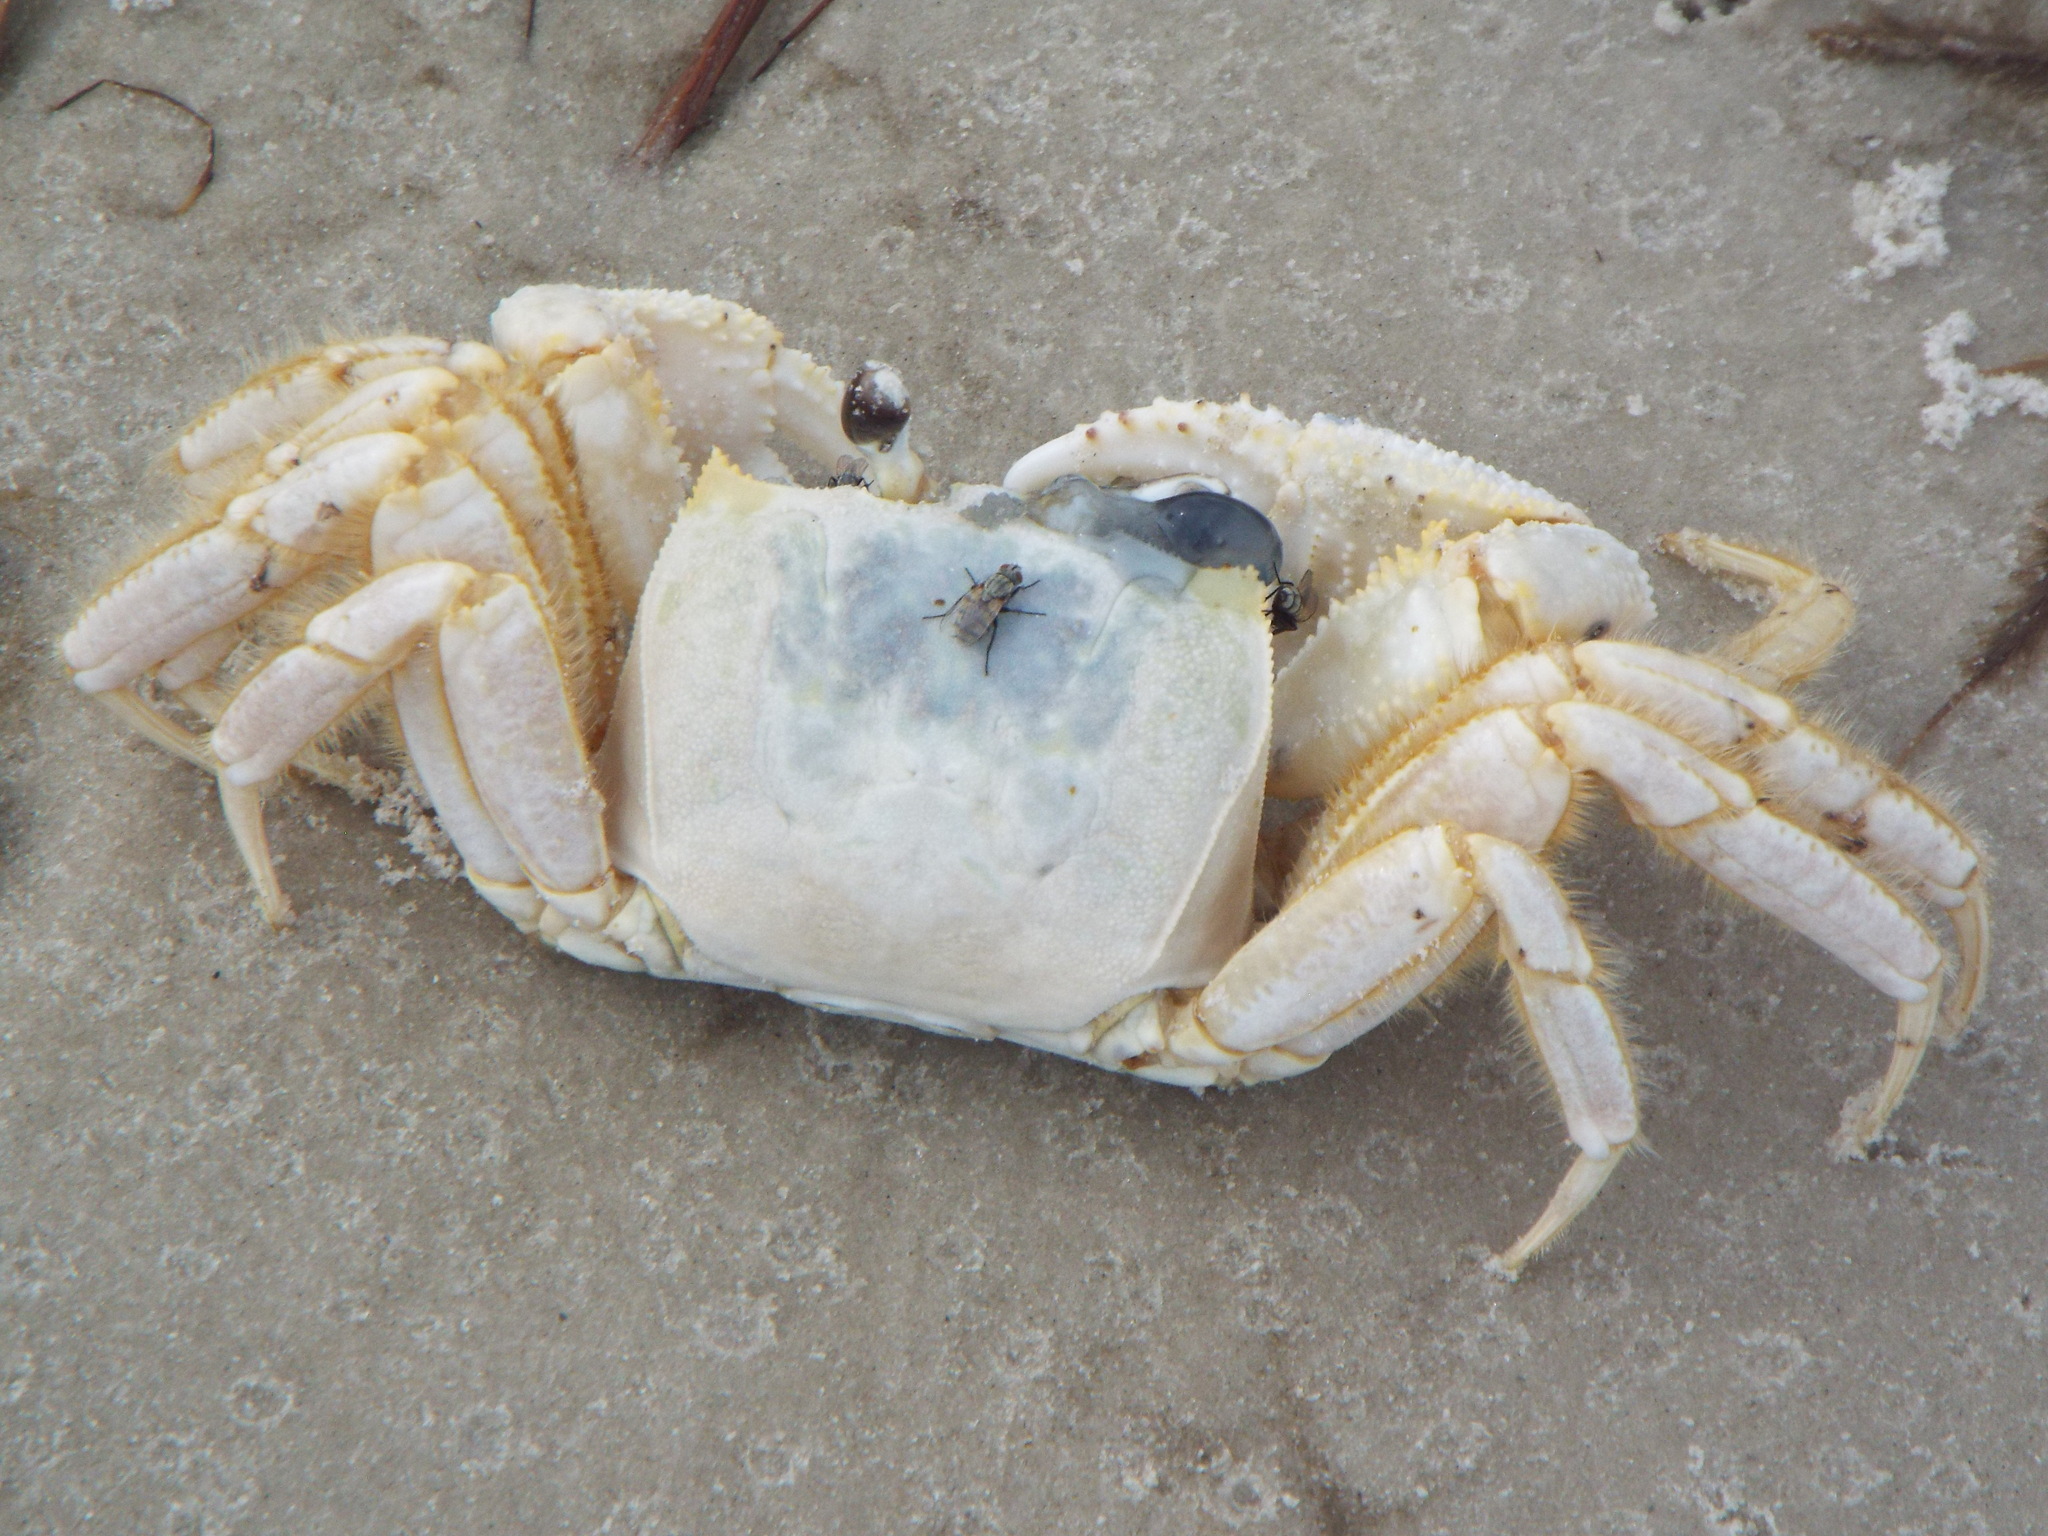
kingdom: Animalia
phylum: Arthropoda
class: Malacostraca
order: Decapoda
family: Ocypodidae
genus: Ocypode
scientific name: Ocypode quadrata
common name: Ghost crab
